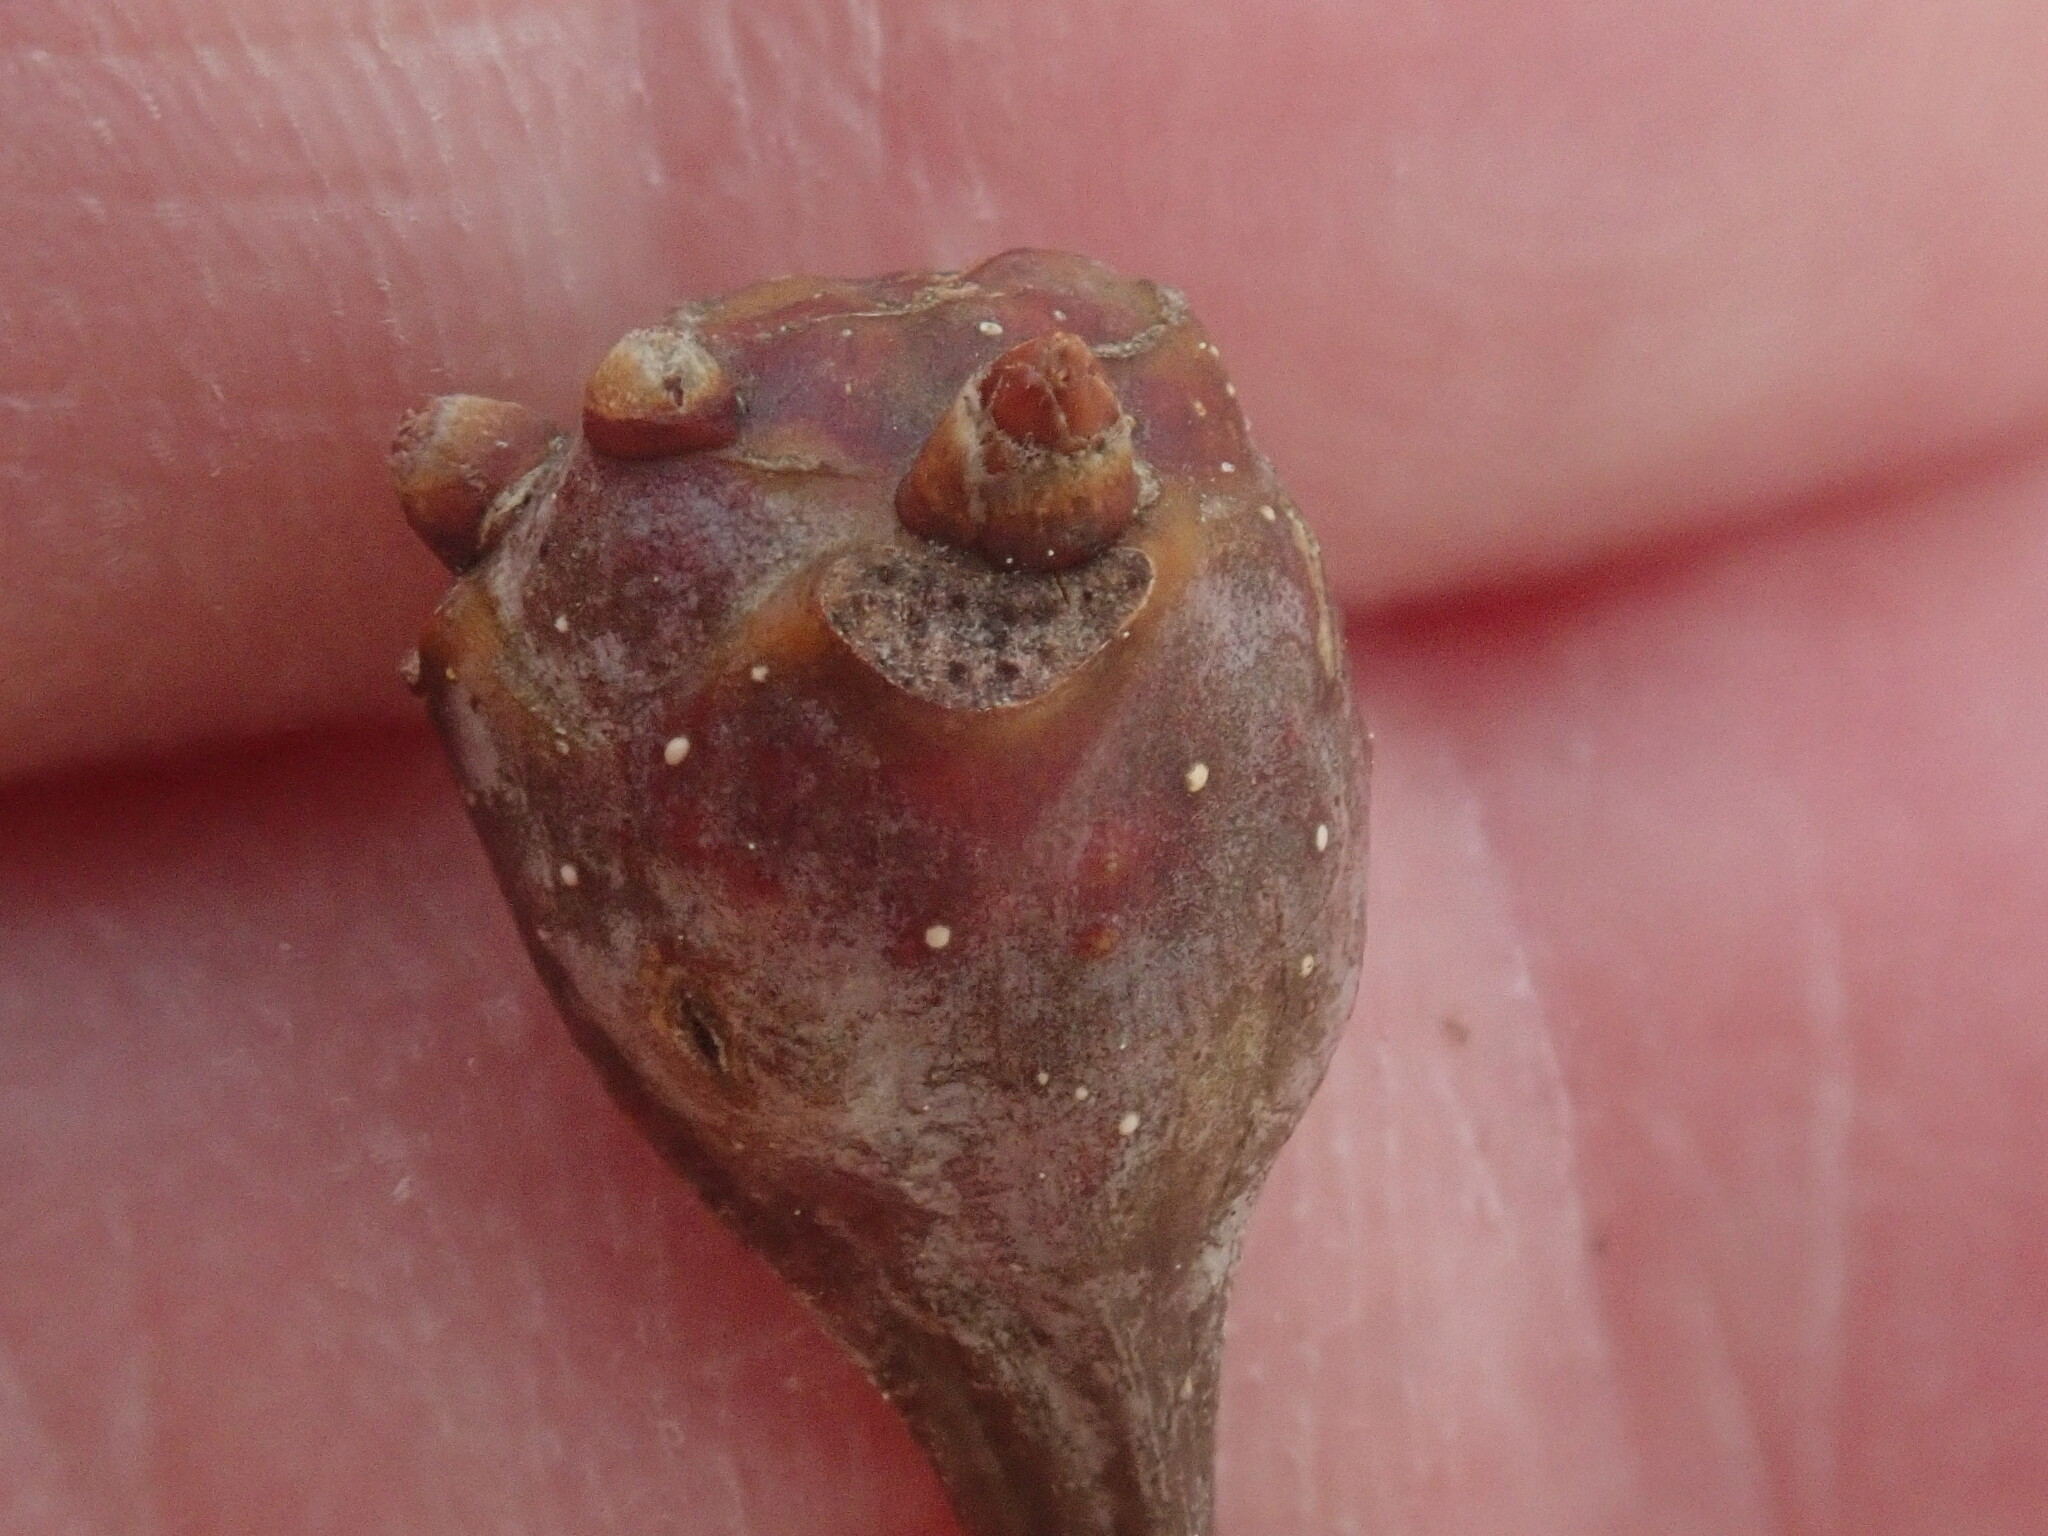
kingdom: Animalia
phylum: Arthropoda
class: Insecta
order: Hymenoptera
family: Cynipidae
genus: Callirhytis
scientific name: Callirhytis clavula
